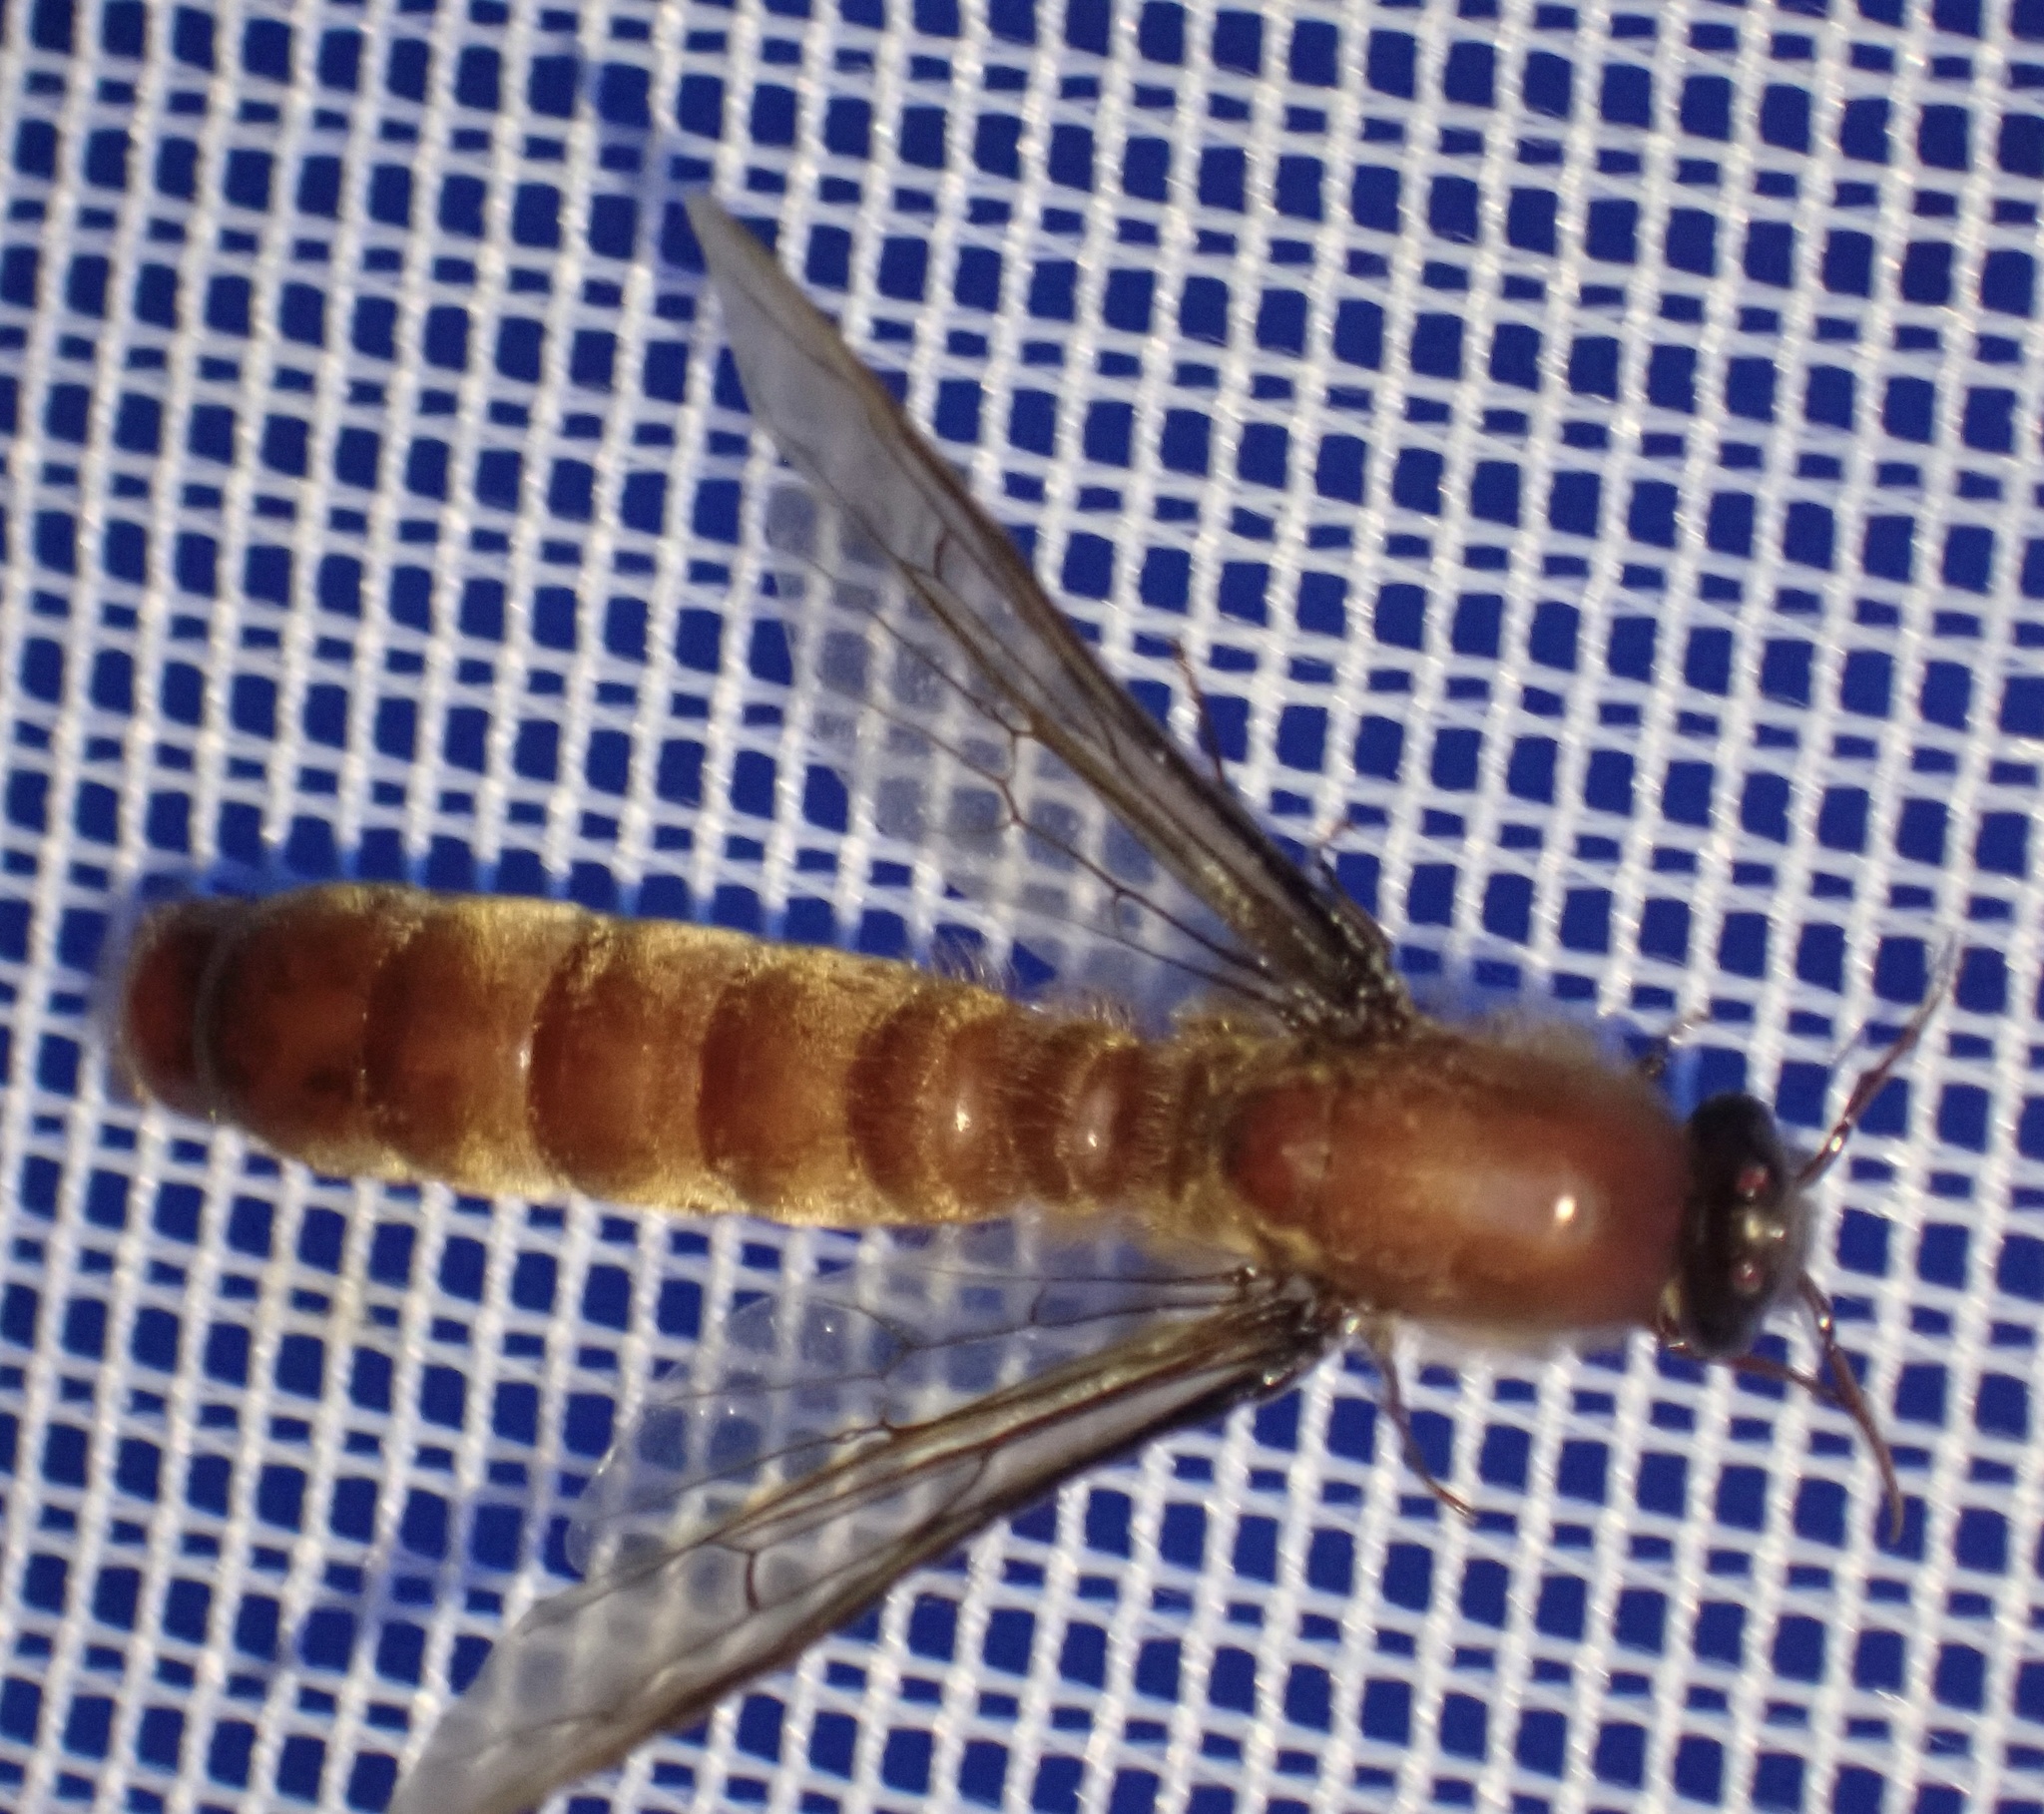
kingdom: Animalia
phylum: Arthropoda
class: Insecta
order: Hymenoptera
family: Formicidae
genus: Dorylus
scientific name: Dorylus
